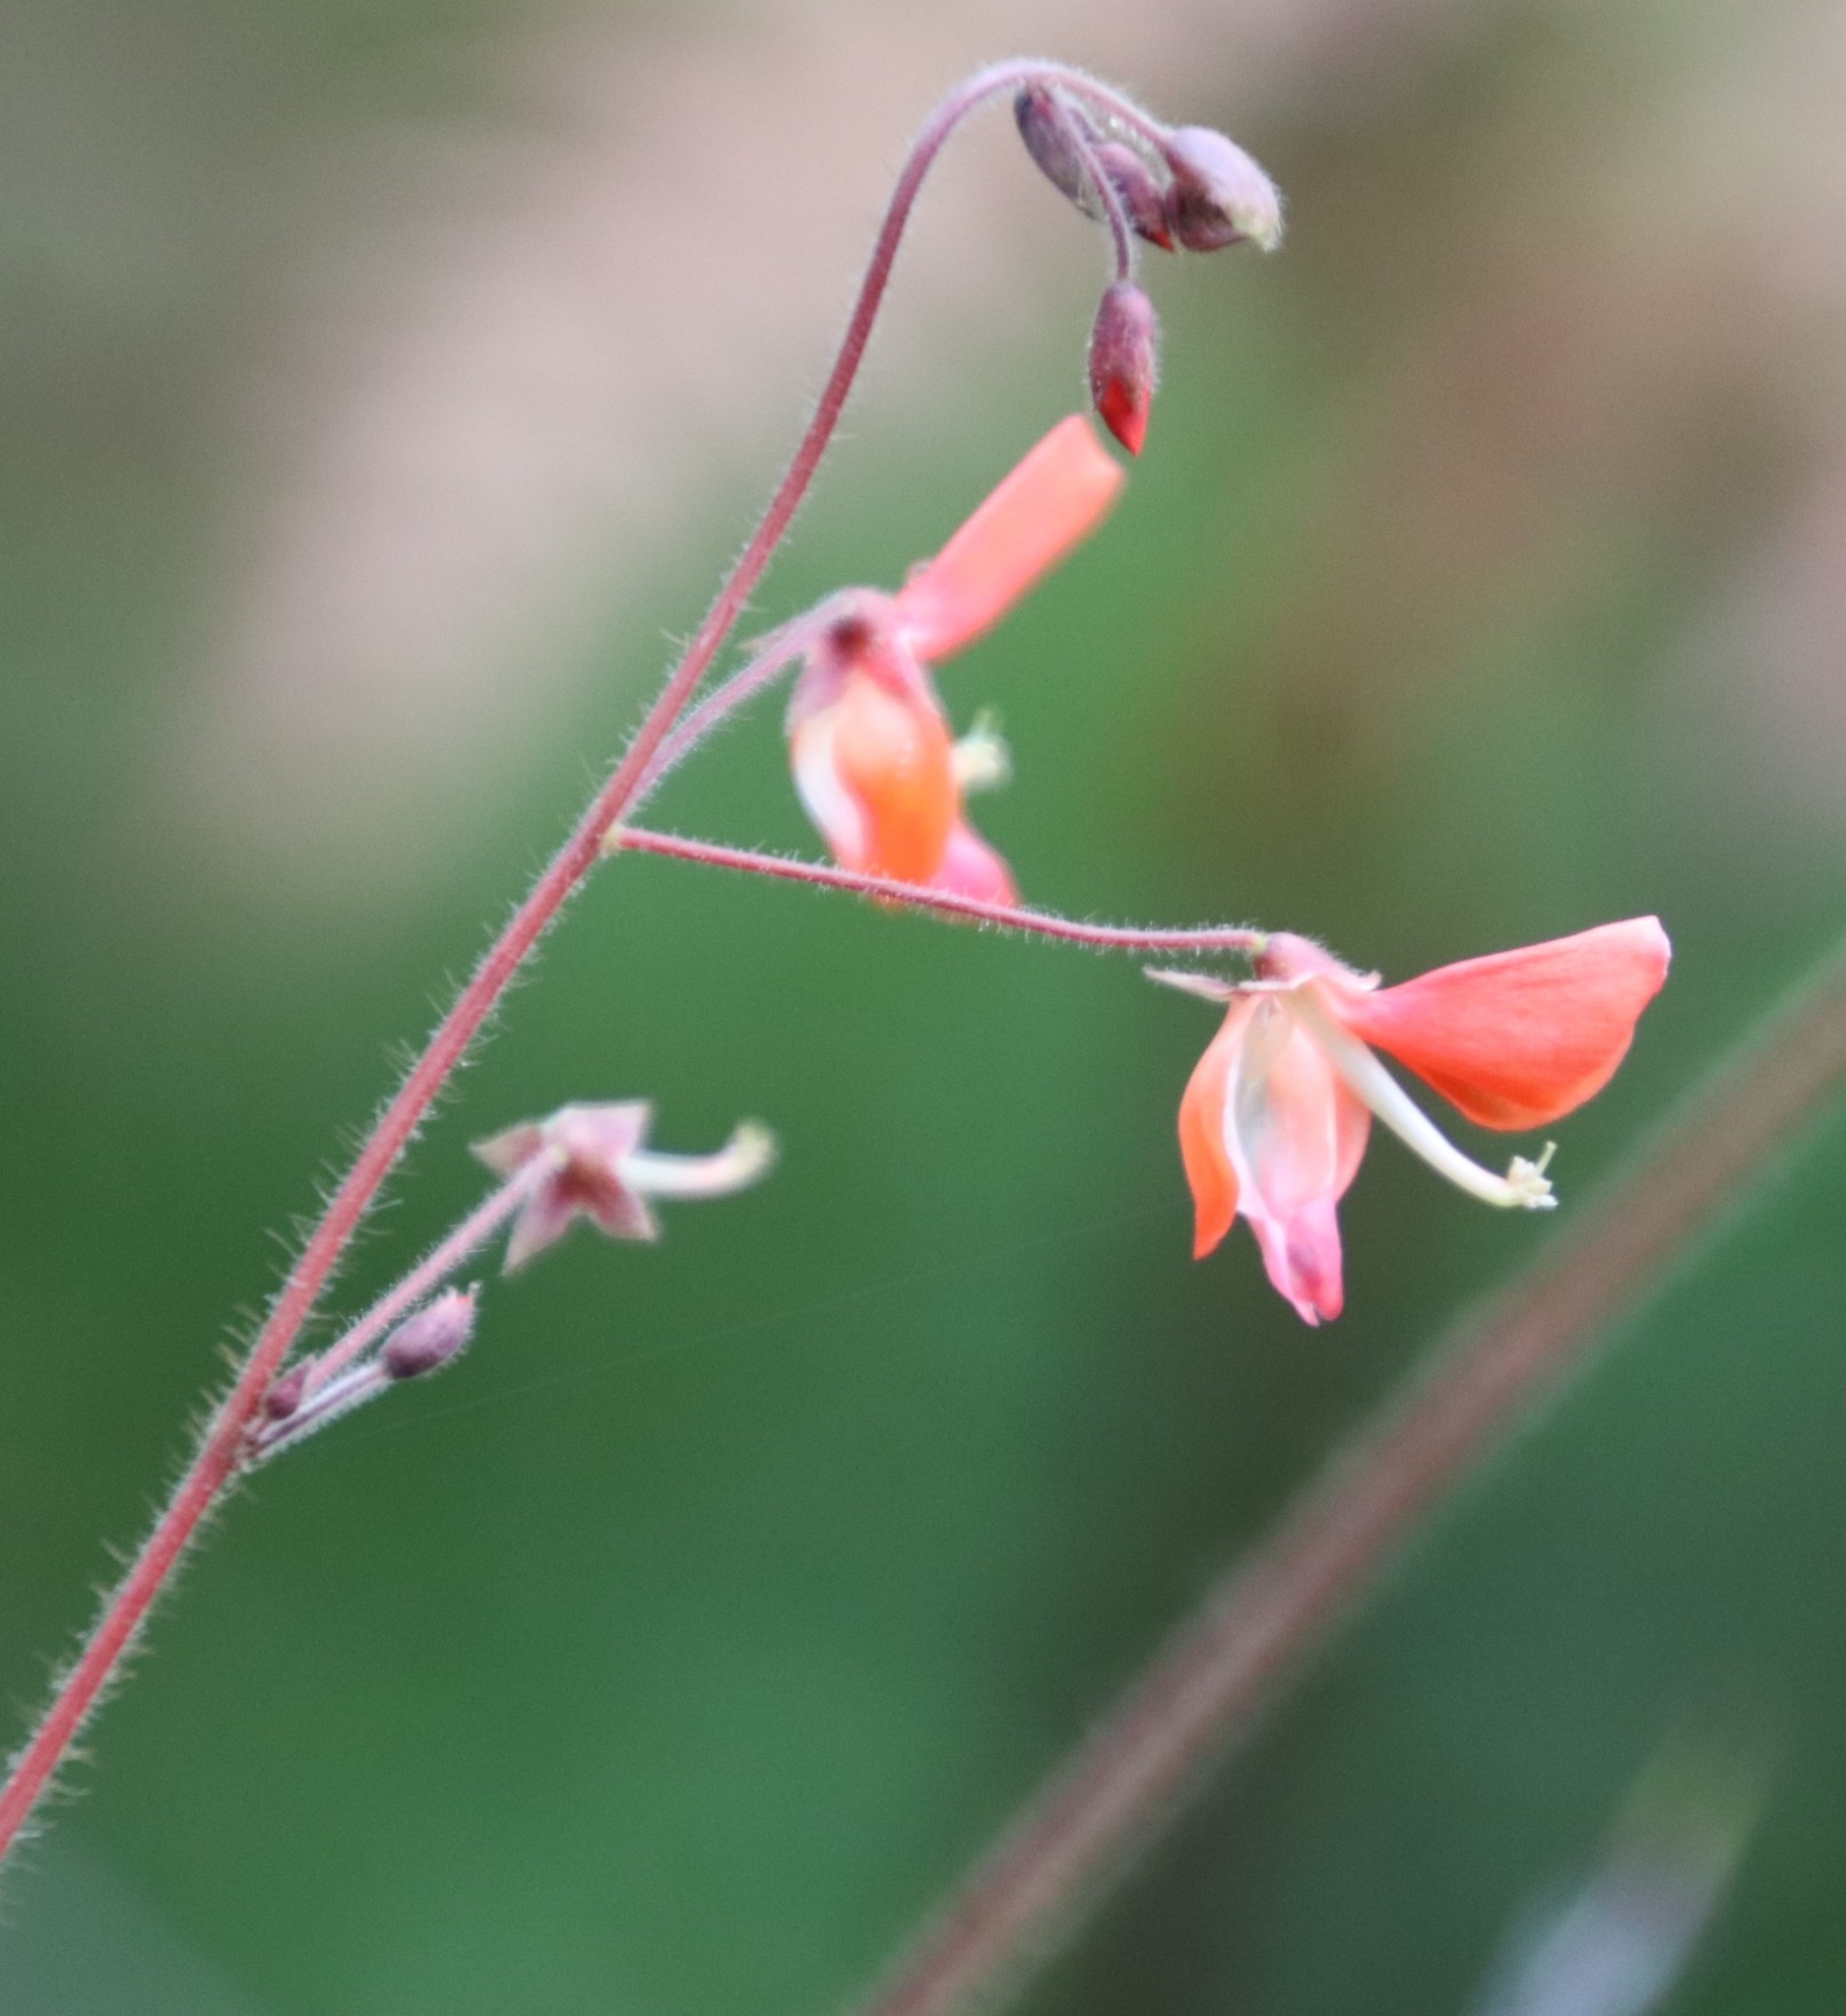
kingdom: Plantae
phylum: Tracheophyta
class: Magnoliopsida
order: Fabales
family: Fabaceae
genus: Hylodesmum
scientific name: Hylodesmum repandum
